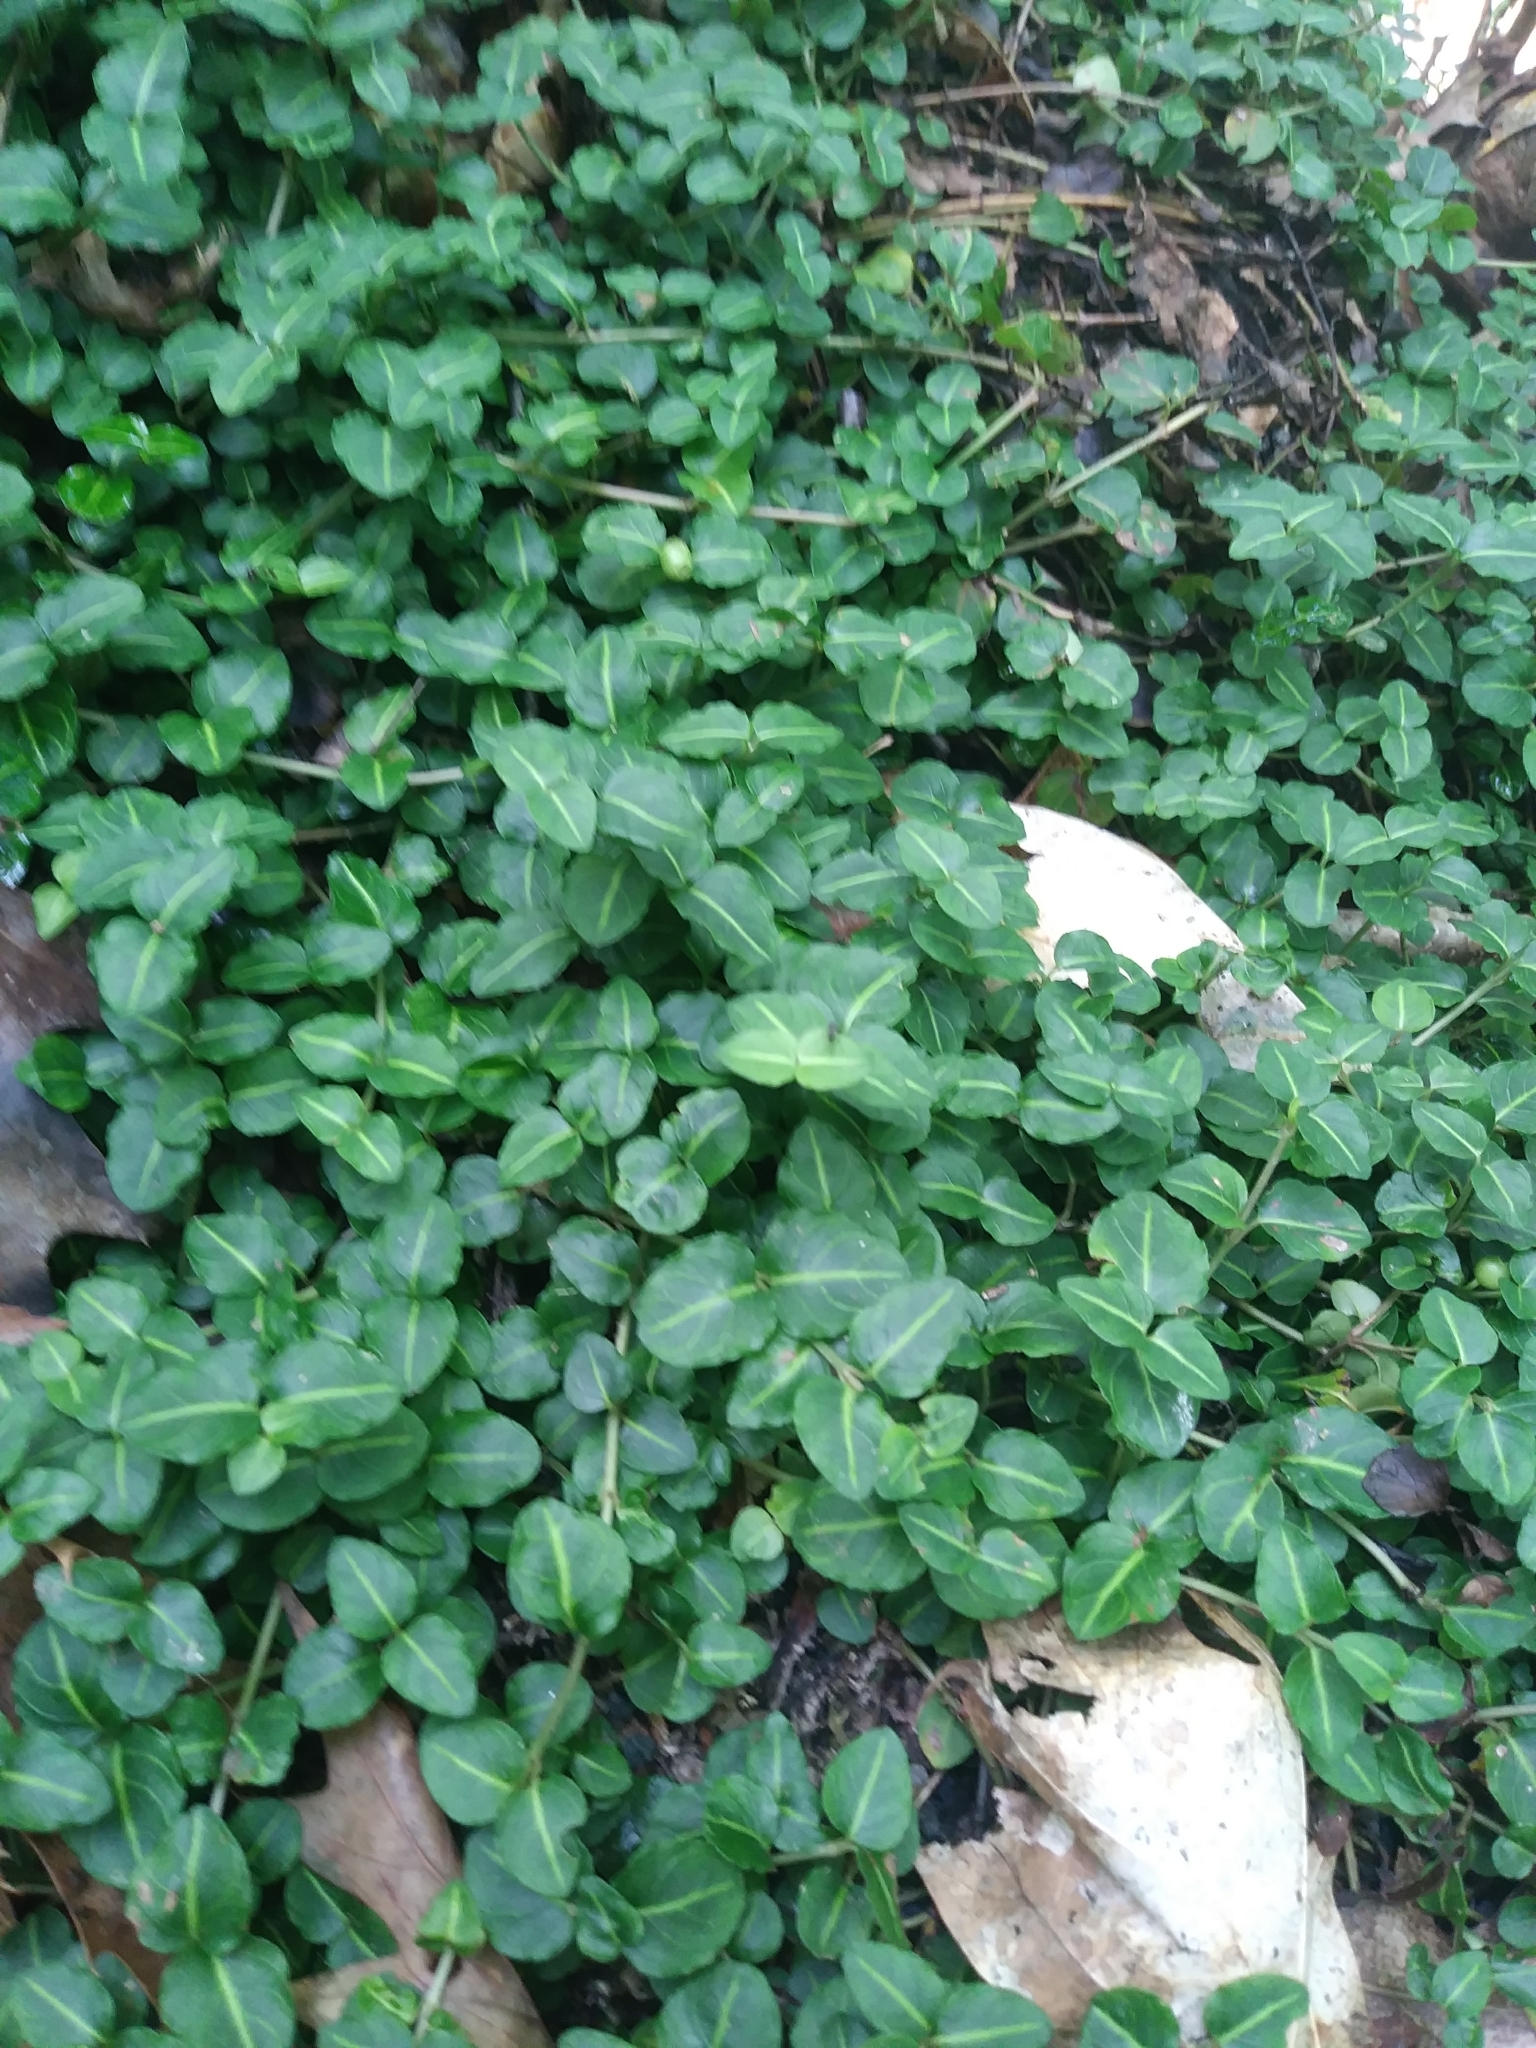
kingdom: Plantae
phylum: Tracheophyta
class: Magnoliopsida
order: Gentianales
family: Rubiaceae
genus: Mitchella
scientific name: Mitchella repens
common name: Partridge-berry
